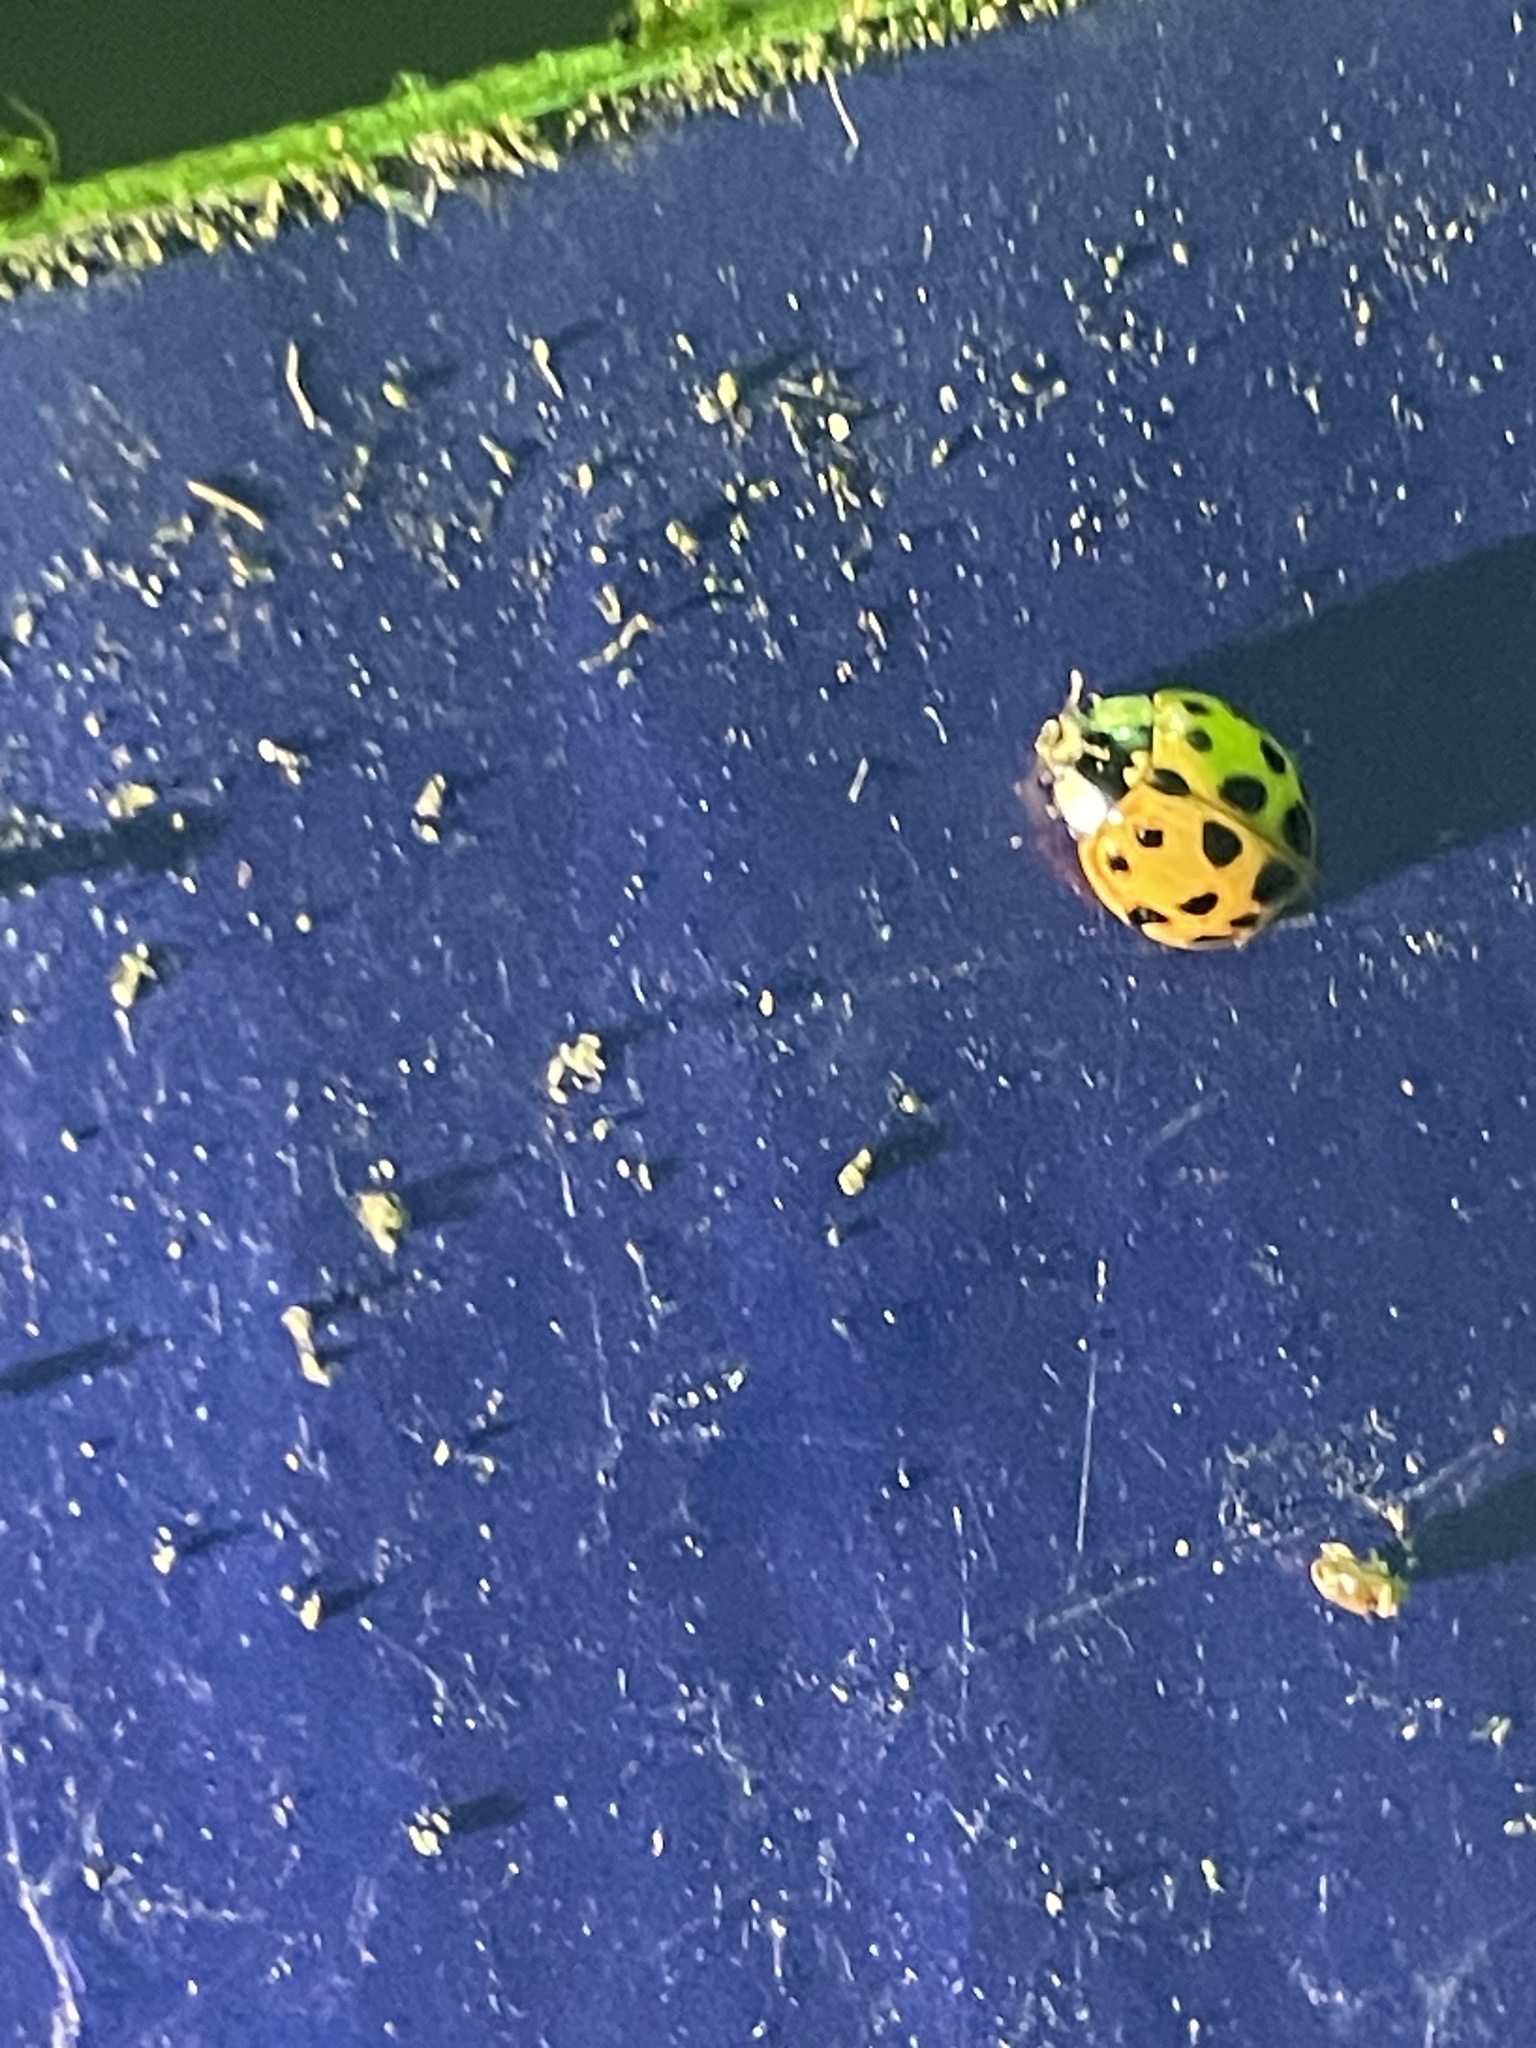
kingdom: Animalia
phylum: Arthropoda
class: Insecta
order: Coleoptera
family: Coccinellidae
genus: Harmonia
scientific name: Harmonia axyridis
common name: Harlequin ladybird
